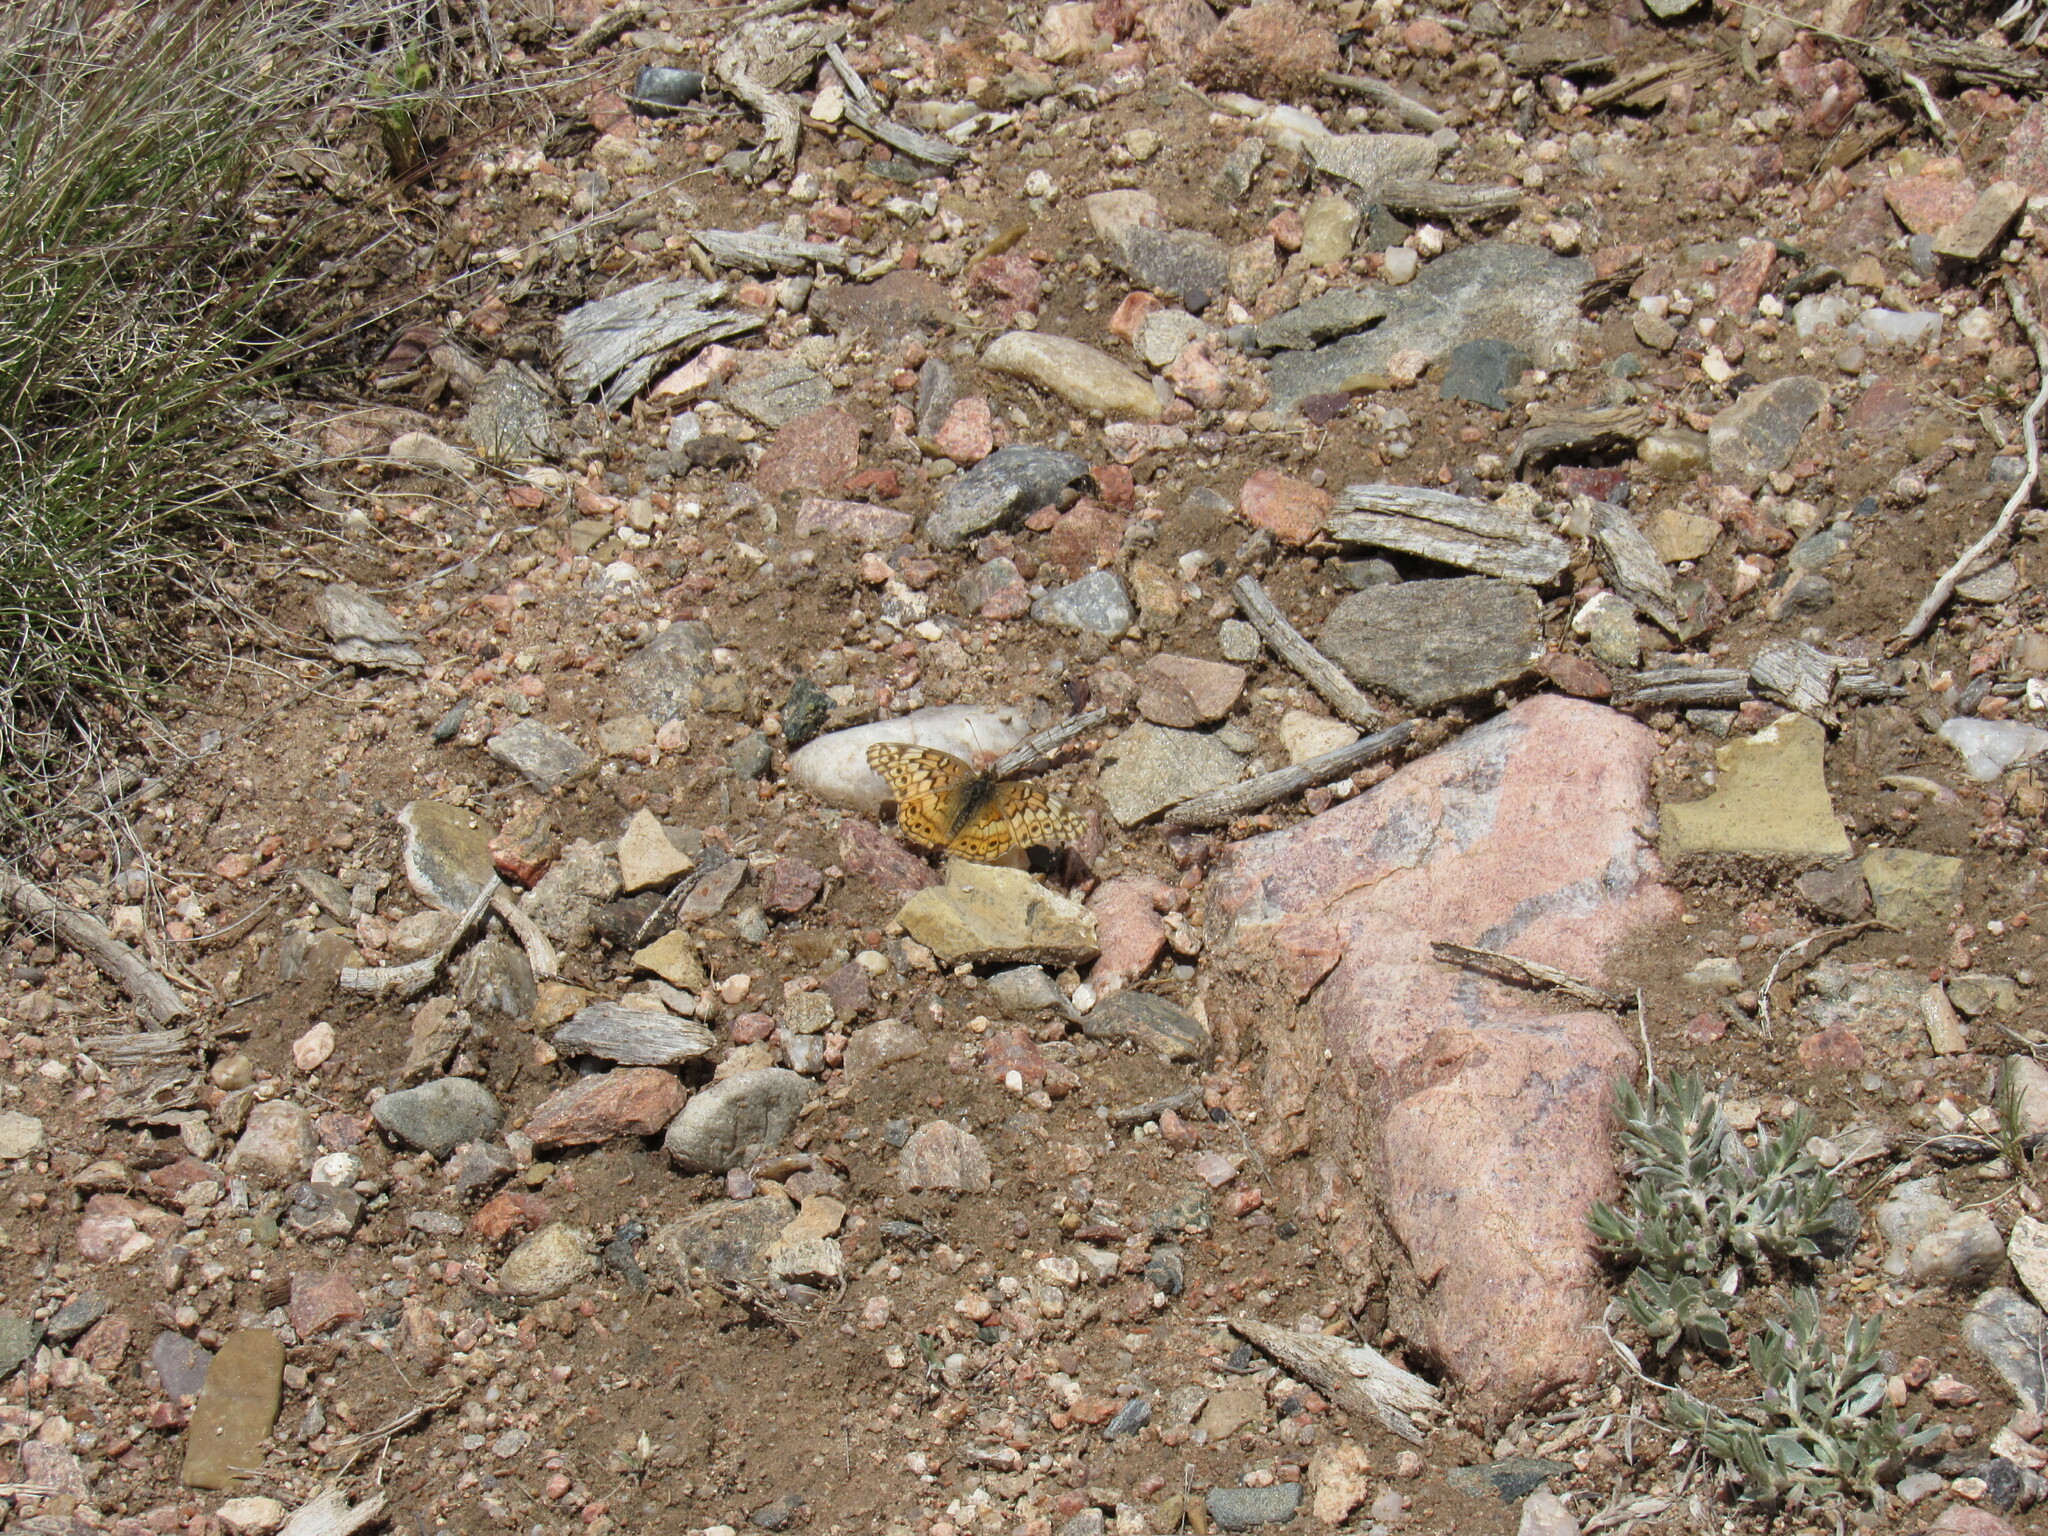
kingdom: Animalia
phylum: Arthropoda
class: Insecta
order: Lepidoptera
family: Nymphalidae
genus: Euptoieta
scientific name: Euptoieta claudia
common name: Variegated fritillary
